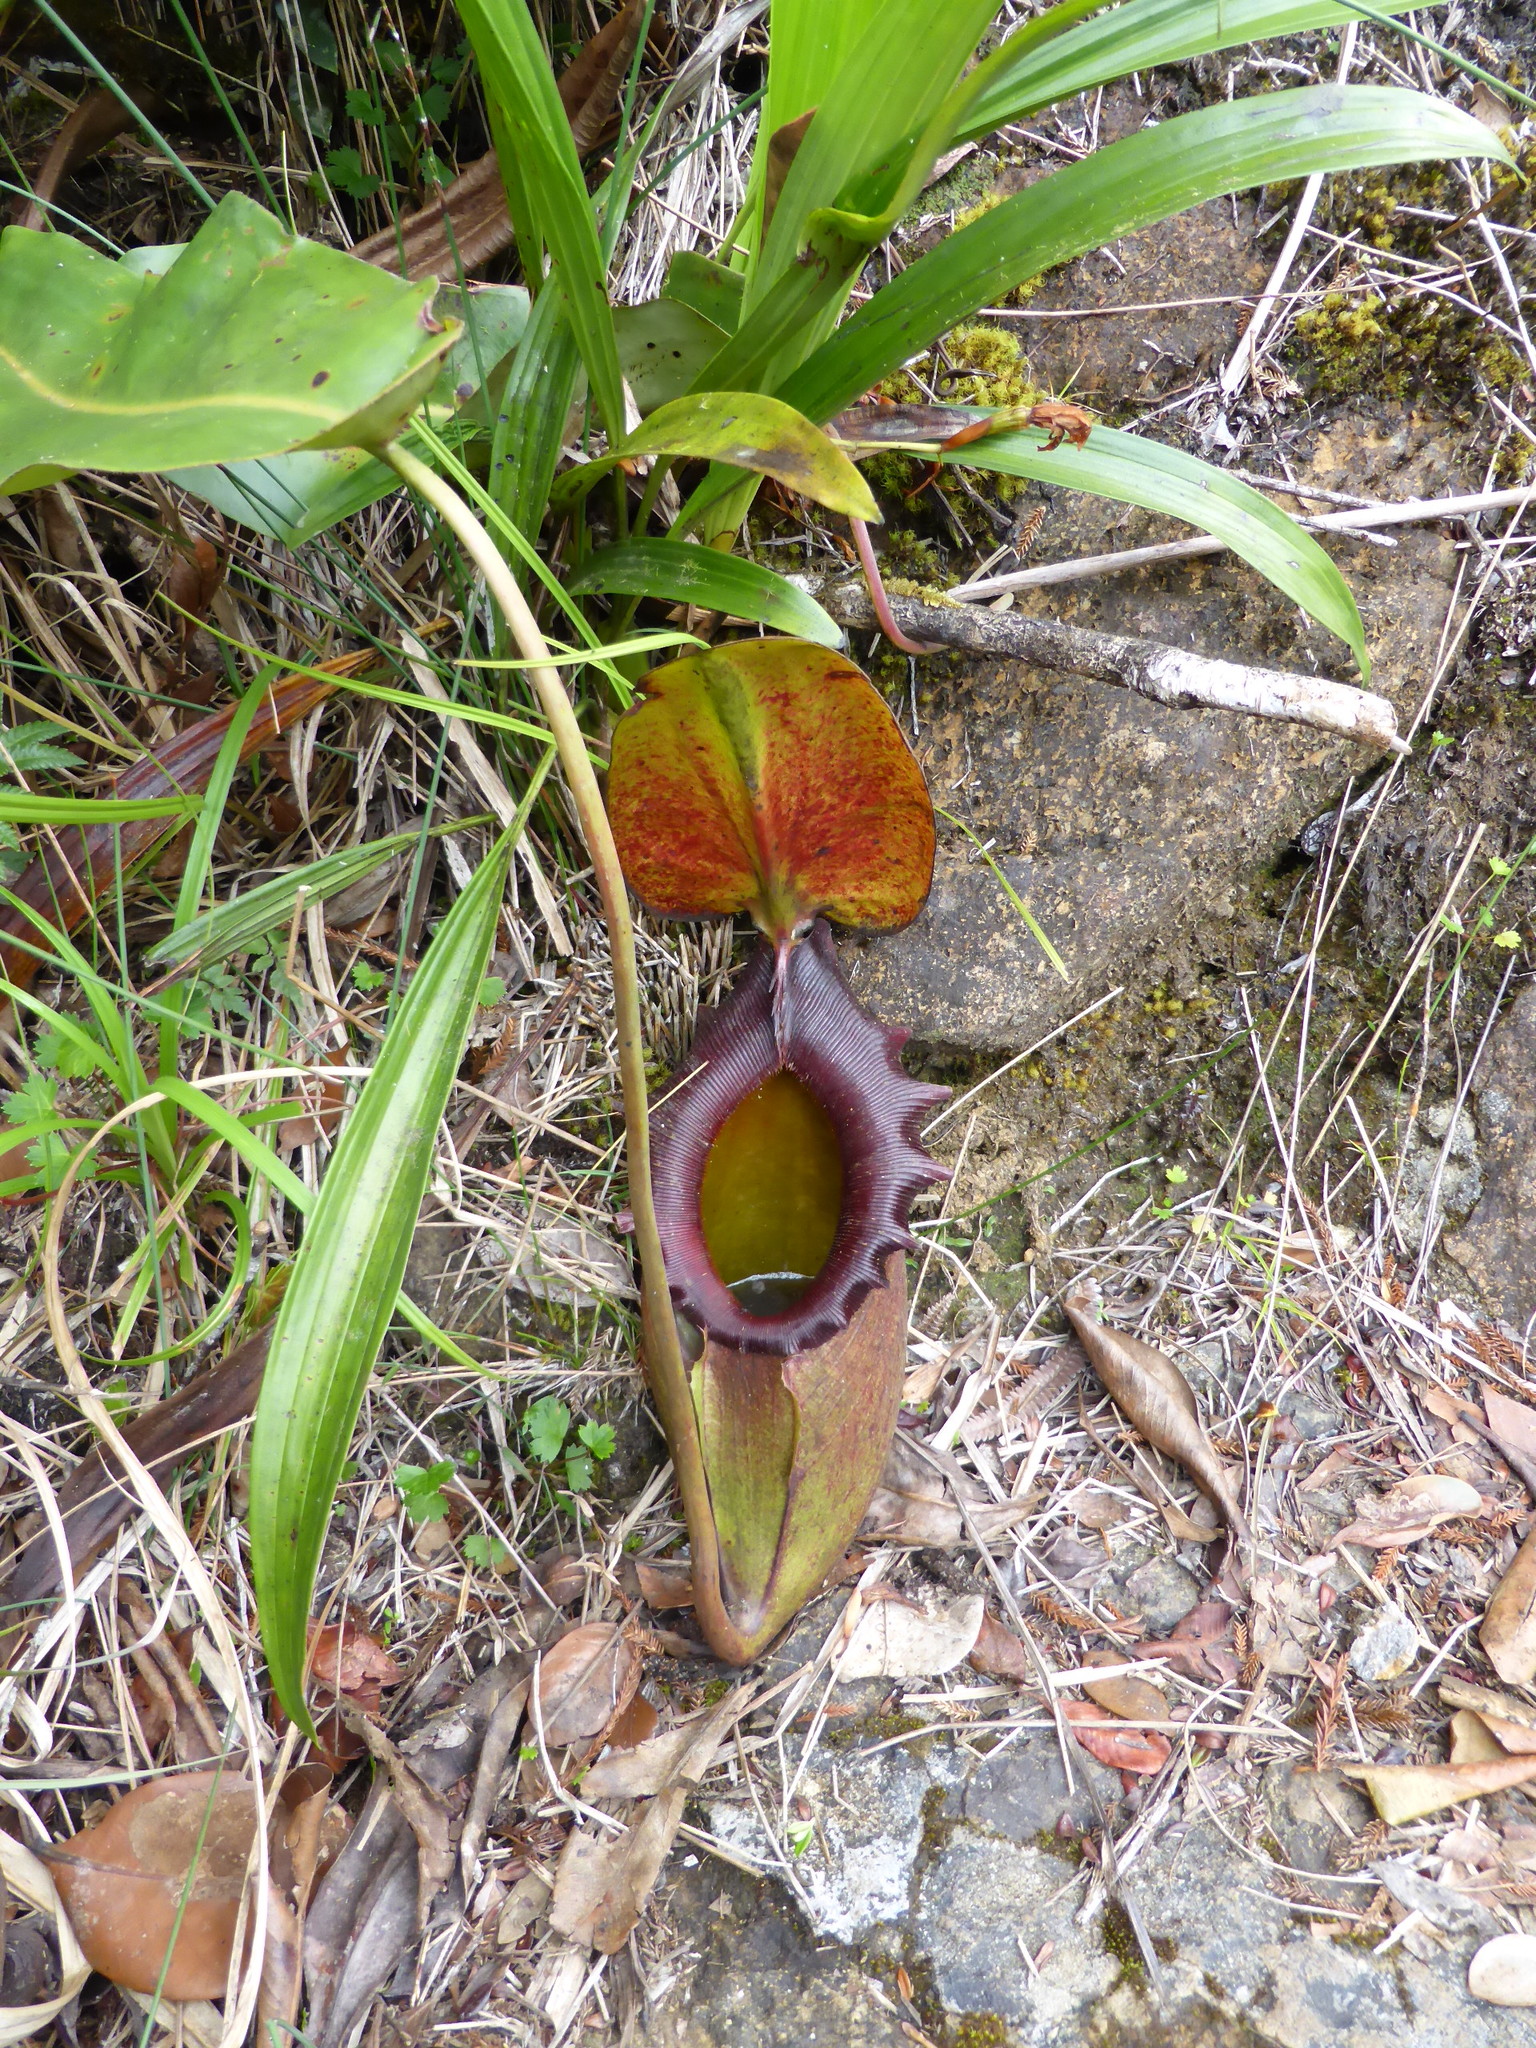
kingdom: Plantae
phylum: Tracheophyta
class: Magnoliopsida
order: Caryophyllales
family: Nepenthaceae
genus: Nepenthes
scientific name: Nepenthes rajah
